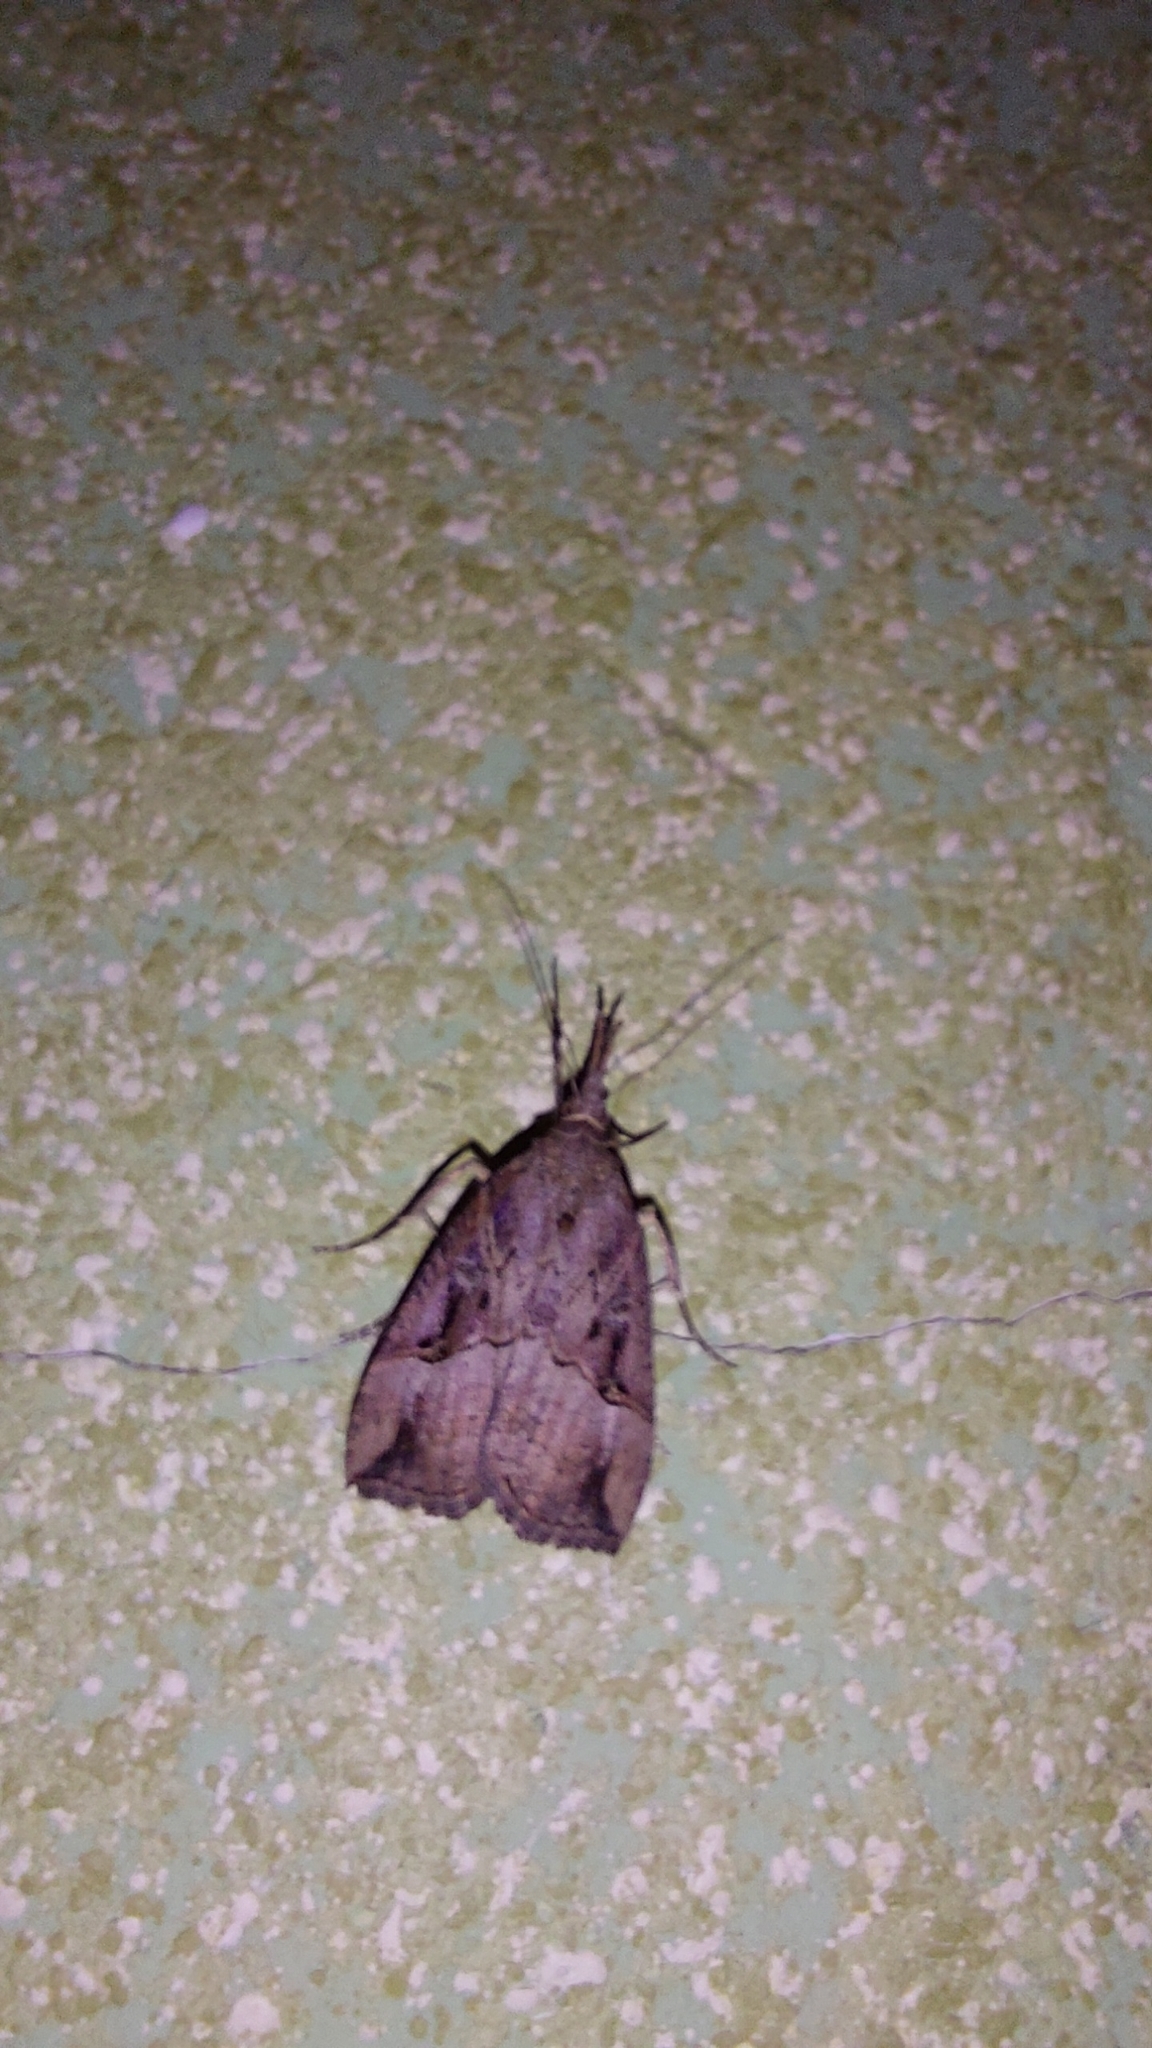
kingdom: Animalia
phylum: Arthropoda
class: Insecta
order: Lepidoptera
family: Erebidae
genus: Hypena
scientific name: Hypena rostralis
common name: Buttoned snout
